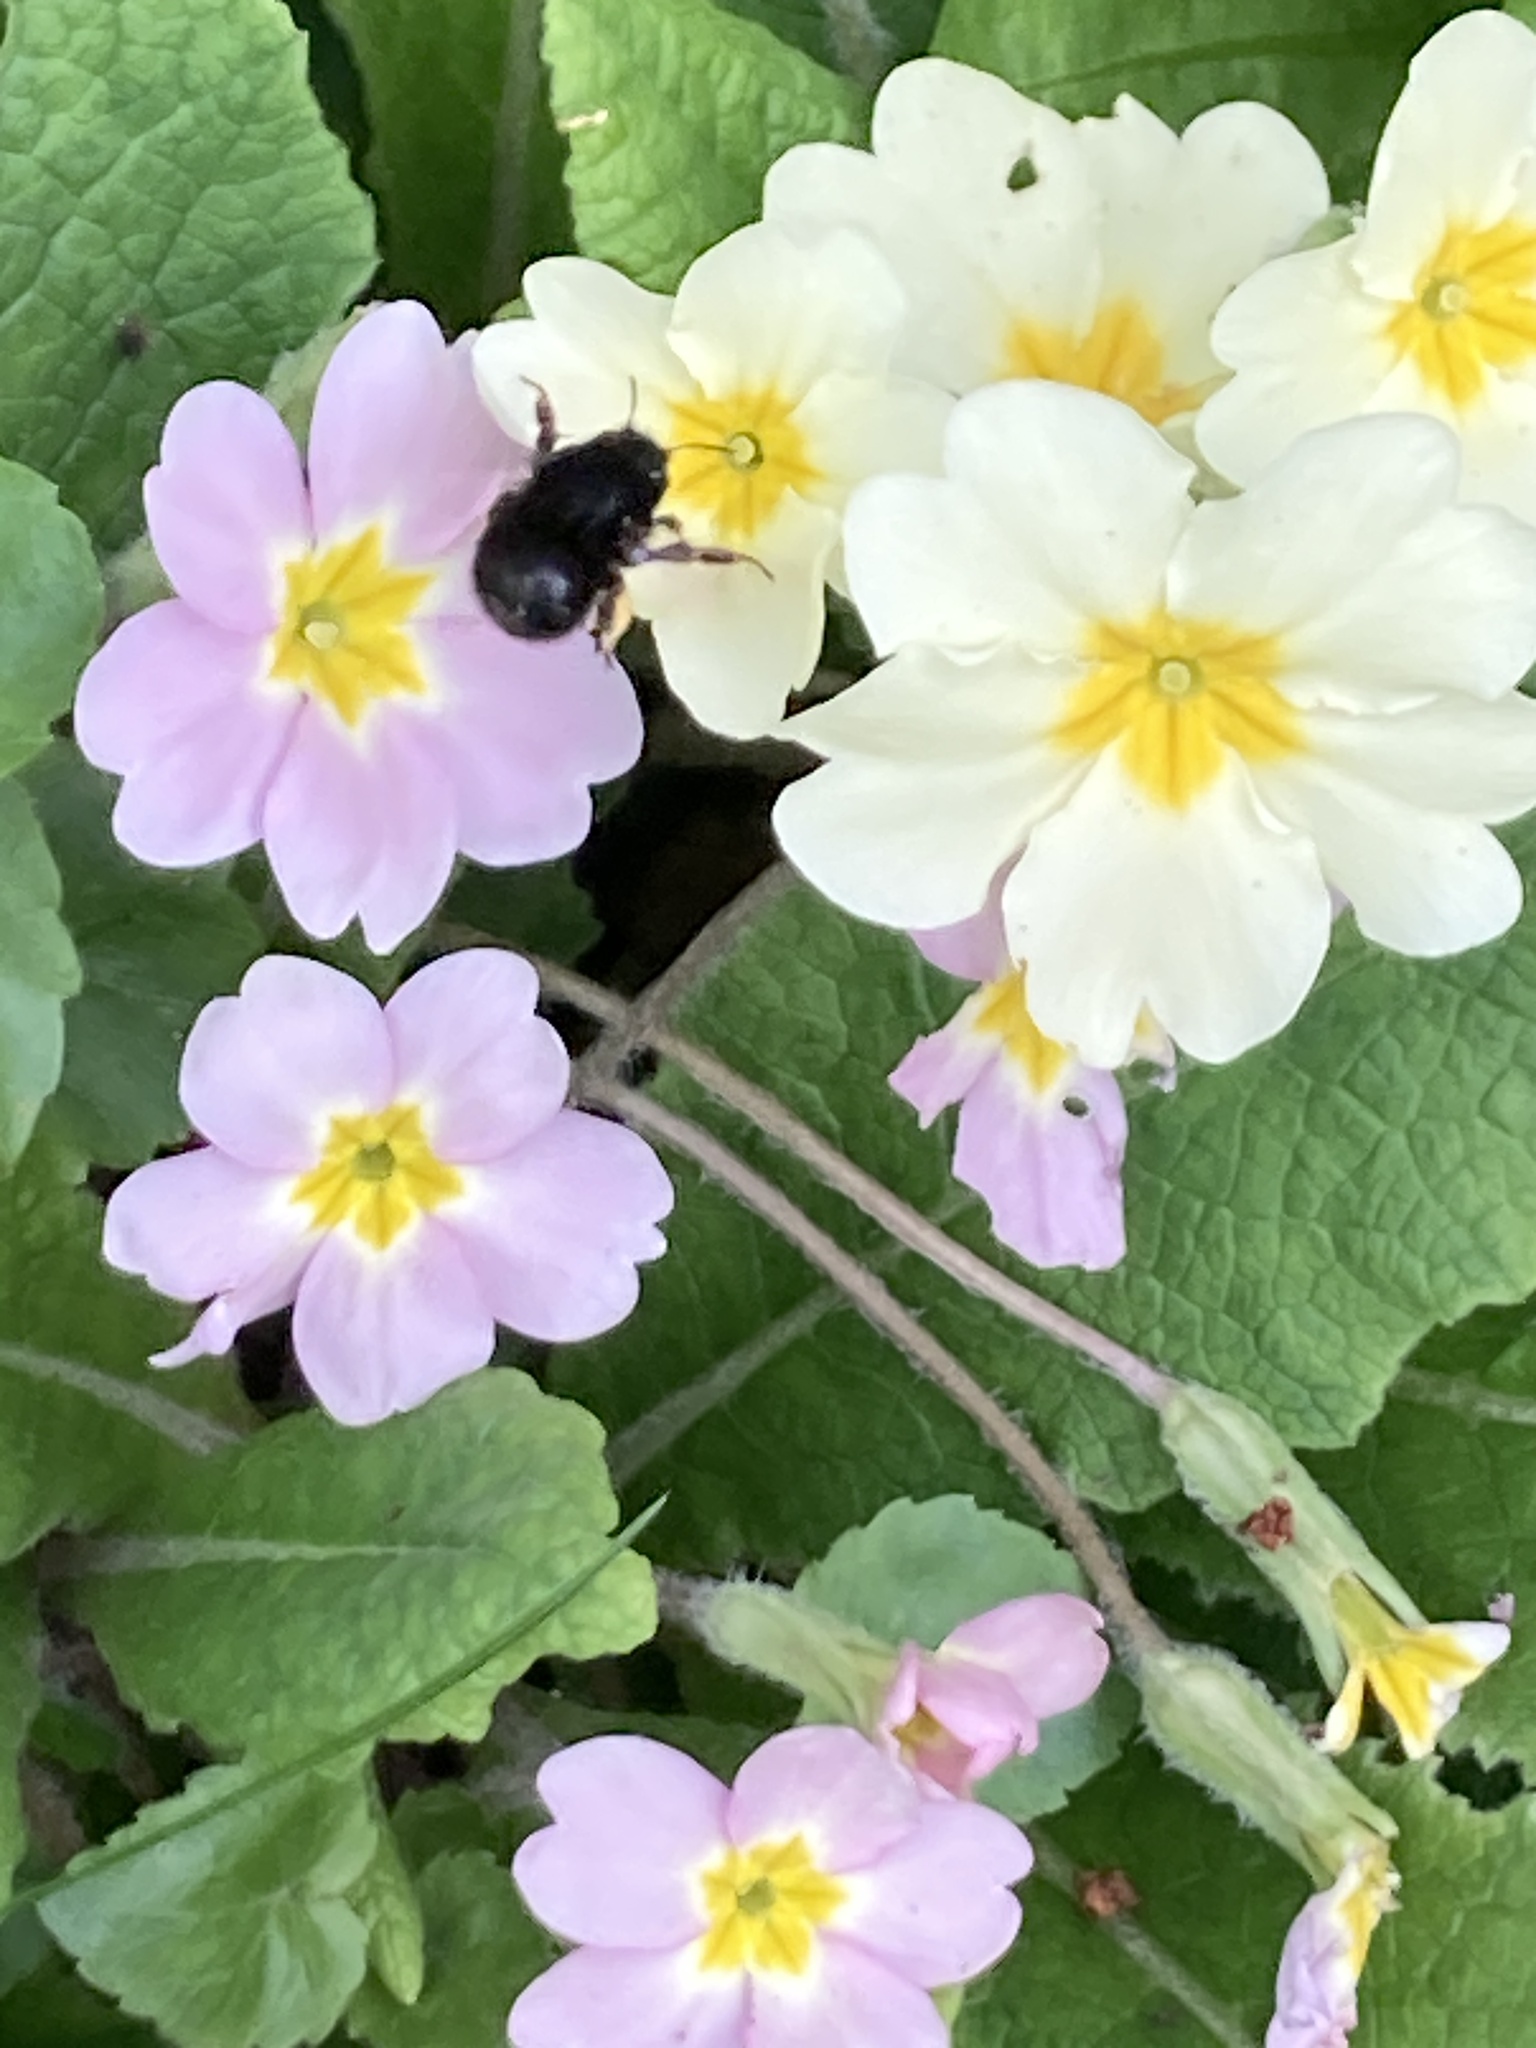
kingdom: Animalia
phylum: Arthropoda
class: Insecta
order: Hymenoptera
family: Apidae
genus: Anthophora
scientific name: Anthophora plumipes
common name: Hairy-footed flower bee
